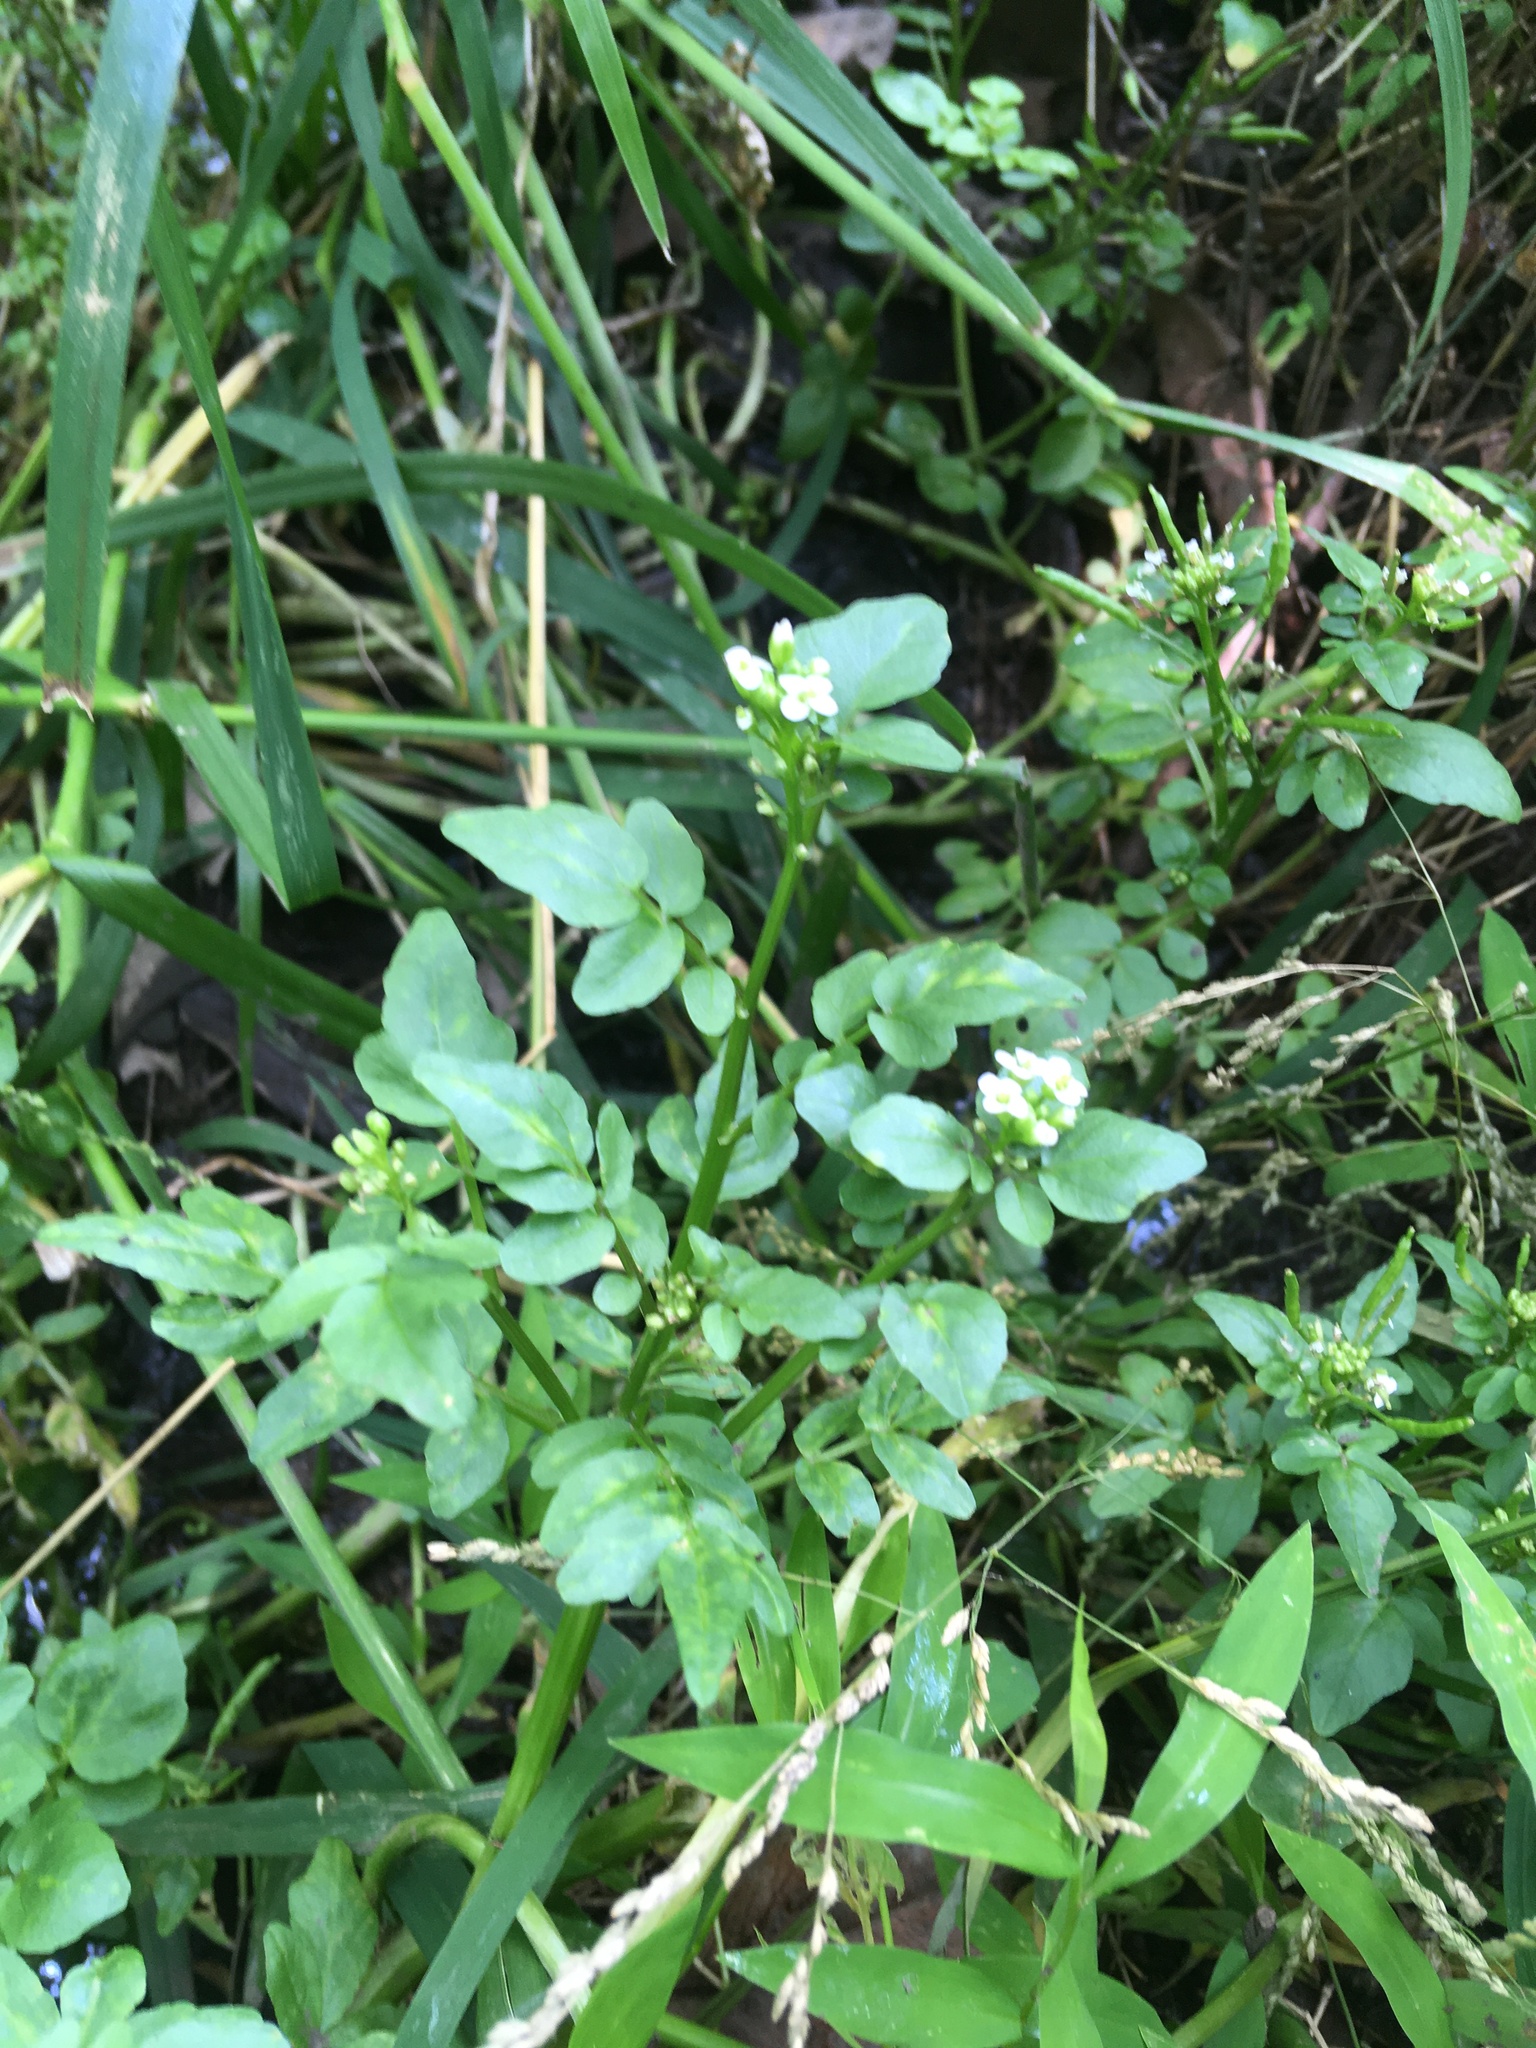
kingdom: Plantae
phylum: Tracheophyta
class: Magnoliopsida
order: Brassicales
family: Brassicaceae
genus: Nasturtium
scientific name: Nasturtium officinale
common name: Watercress
